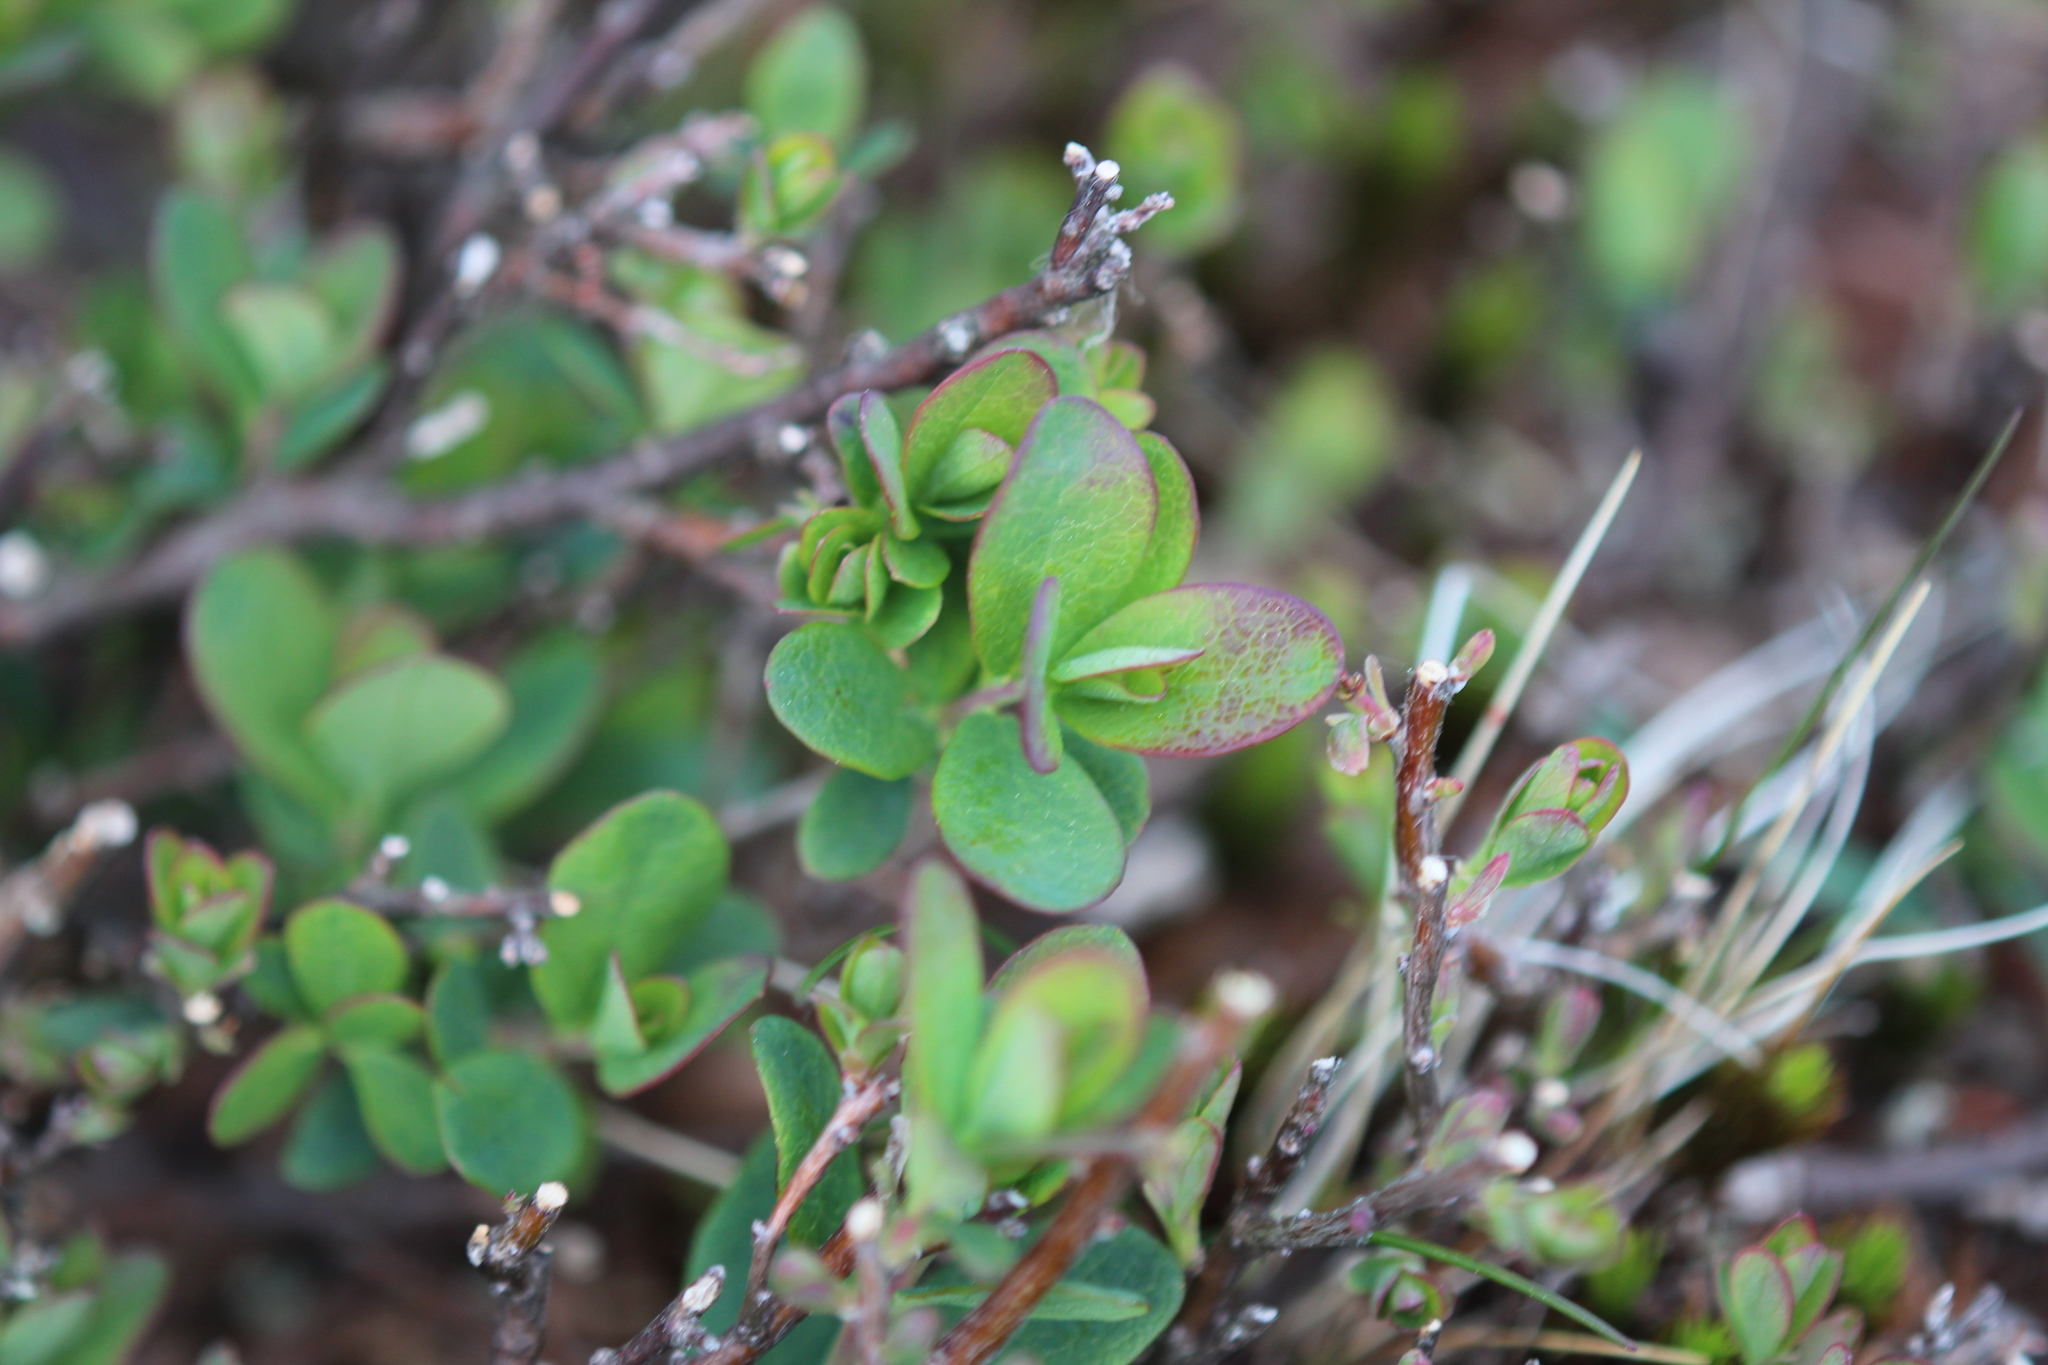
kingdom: Plantae
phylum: Tracheophyta
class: Magnoliopsida
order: Ericales
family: Ericaceae
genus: Vaccinium
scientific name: Vaccinium uliginosum
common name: Bog bilberry
